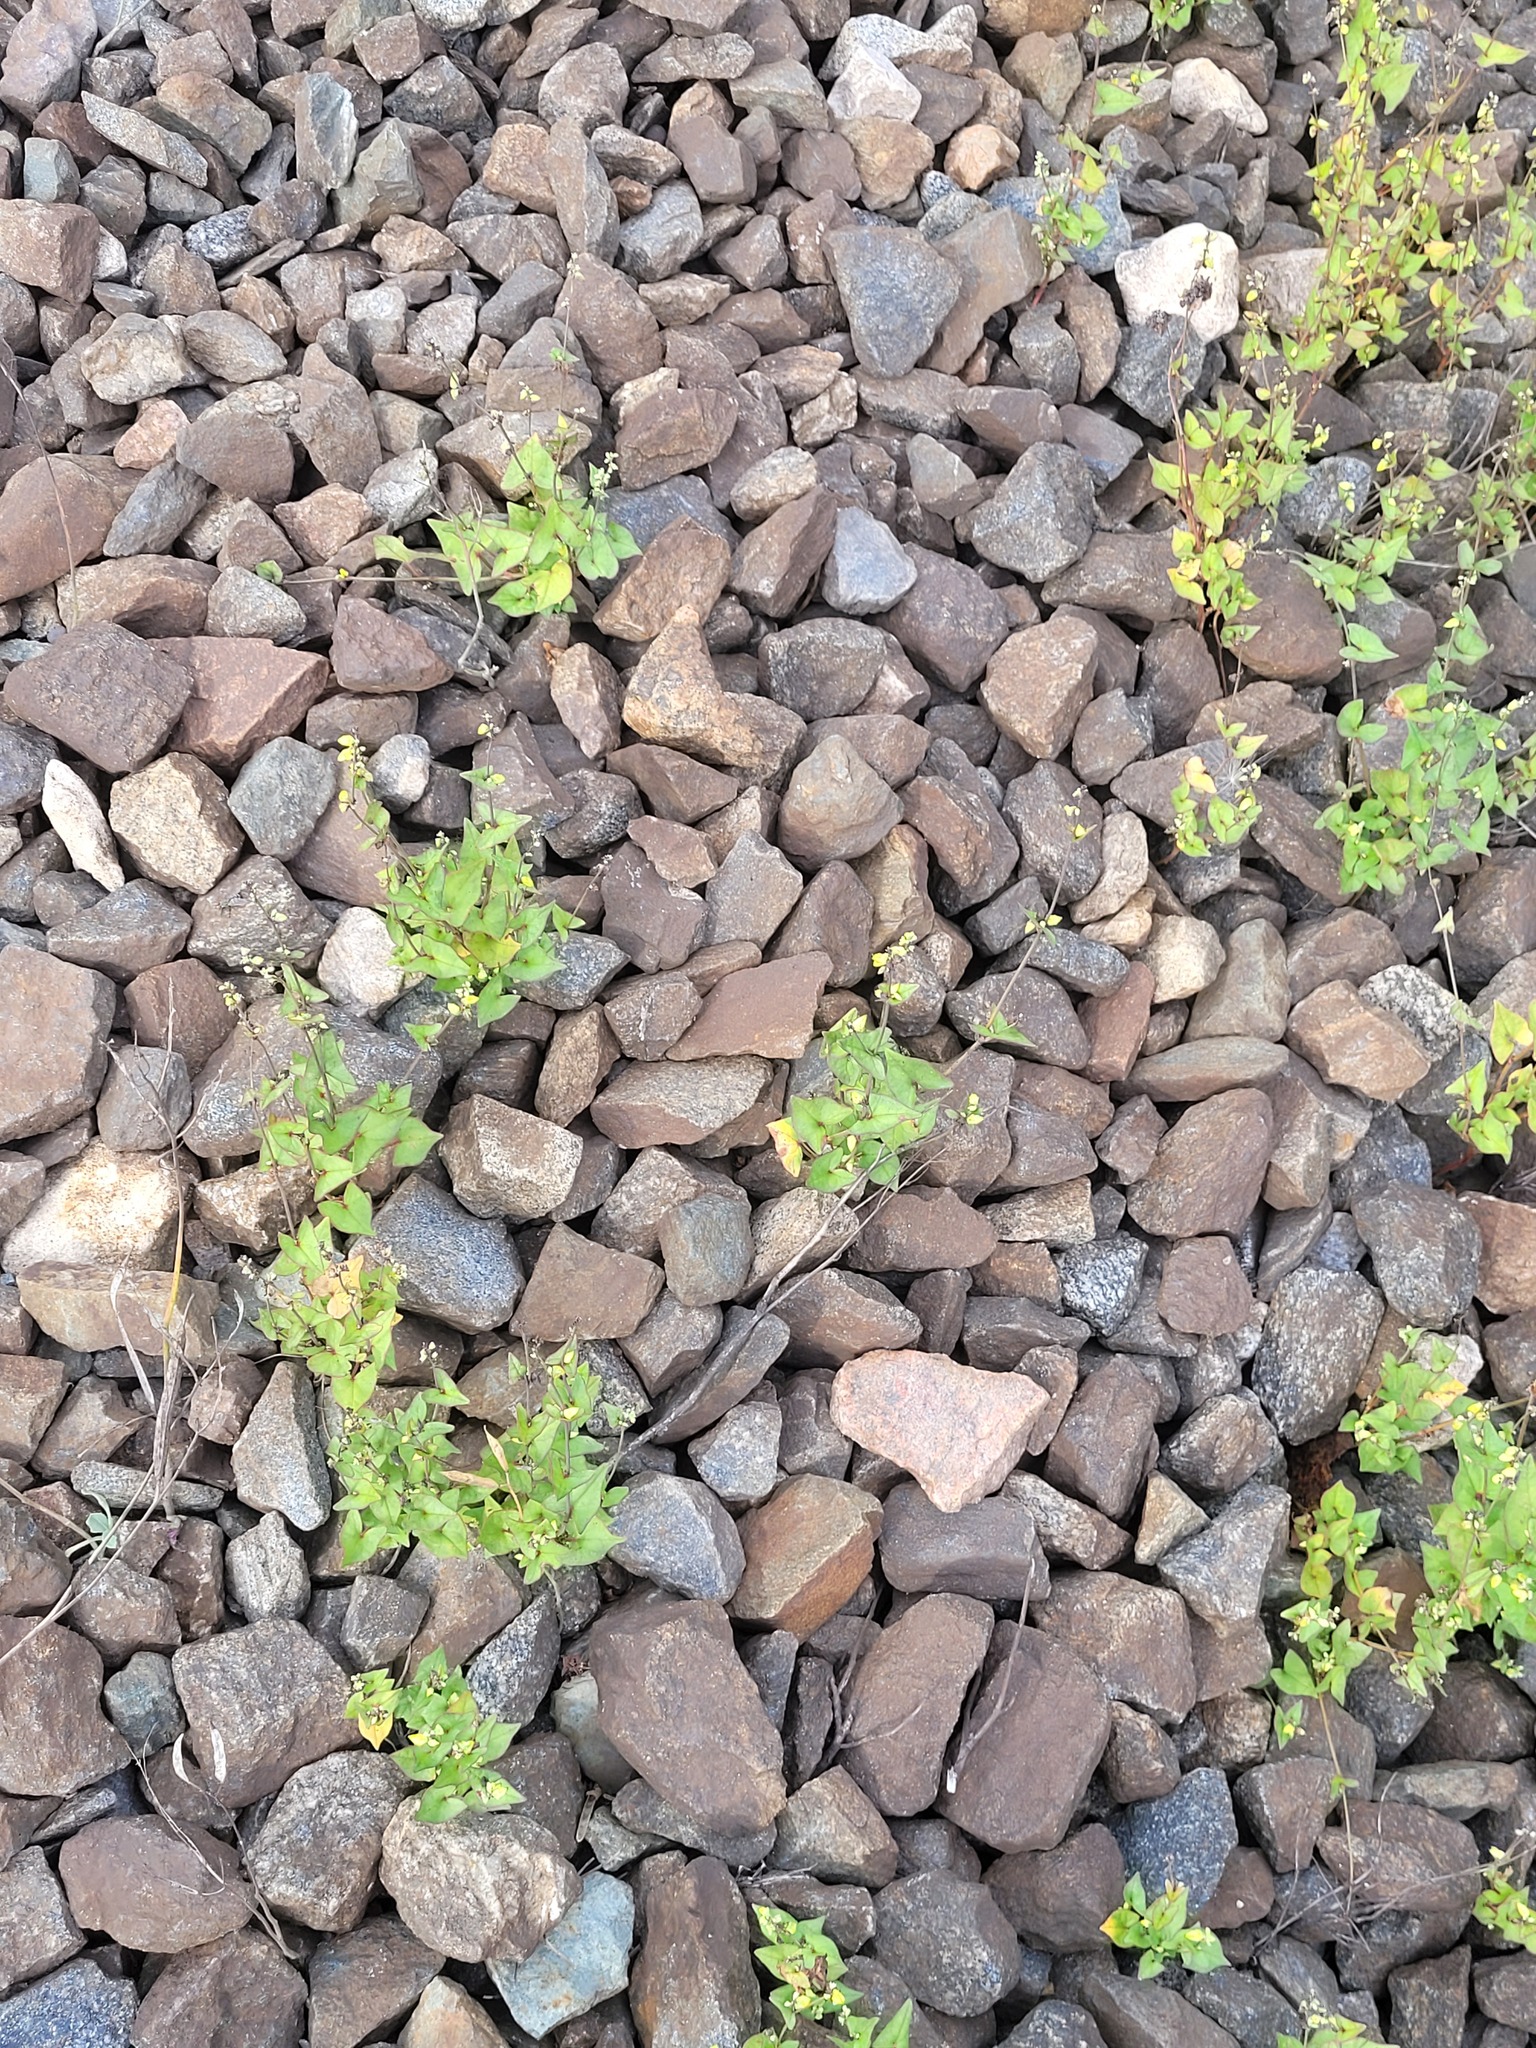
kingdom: Plantae
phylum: Tracheophyta
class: Magnoliopsida
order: Caryophyllales
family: Polygonaceae
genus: Fagopyrum
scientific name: Fagopyrum tataricum
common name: Green buckwheat
